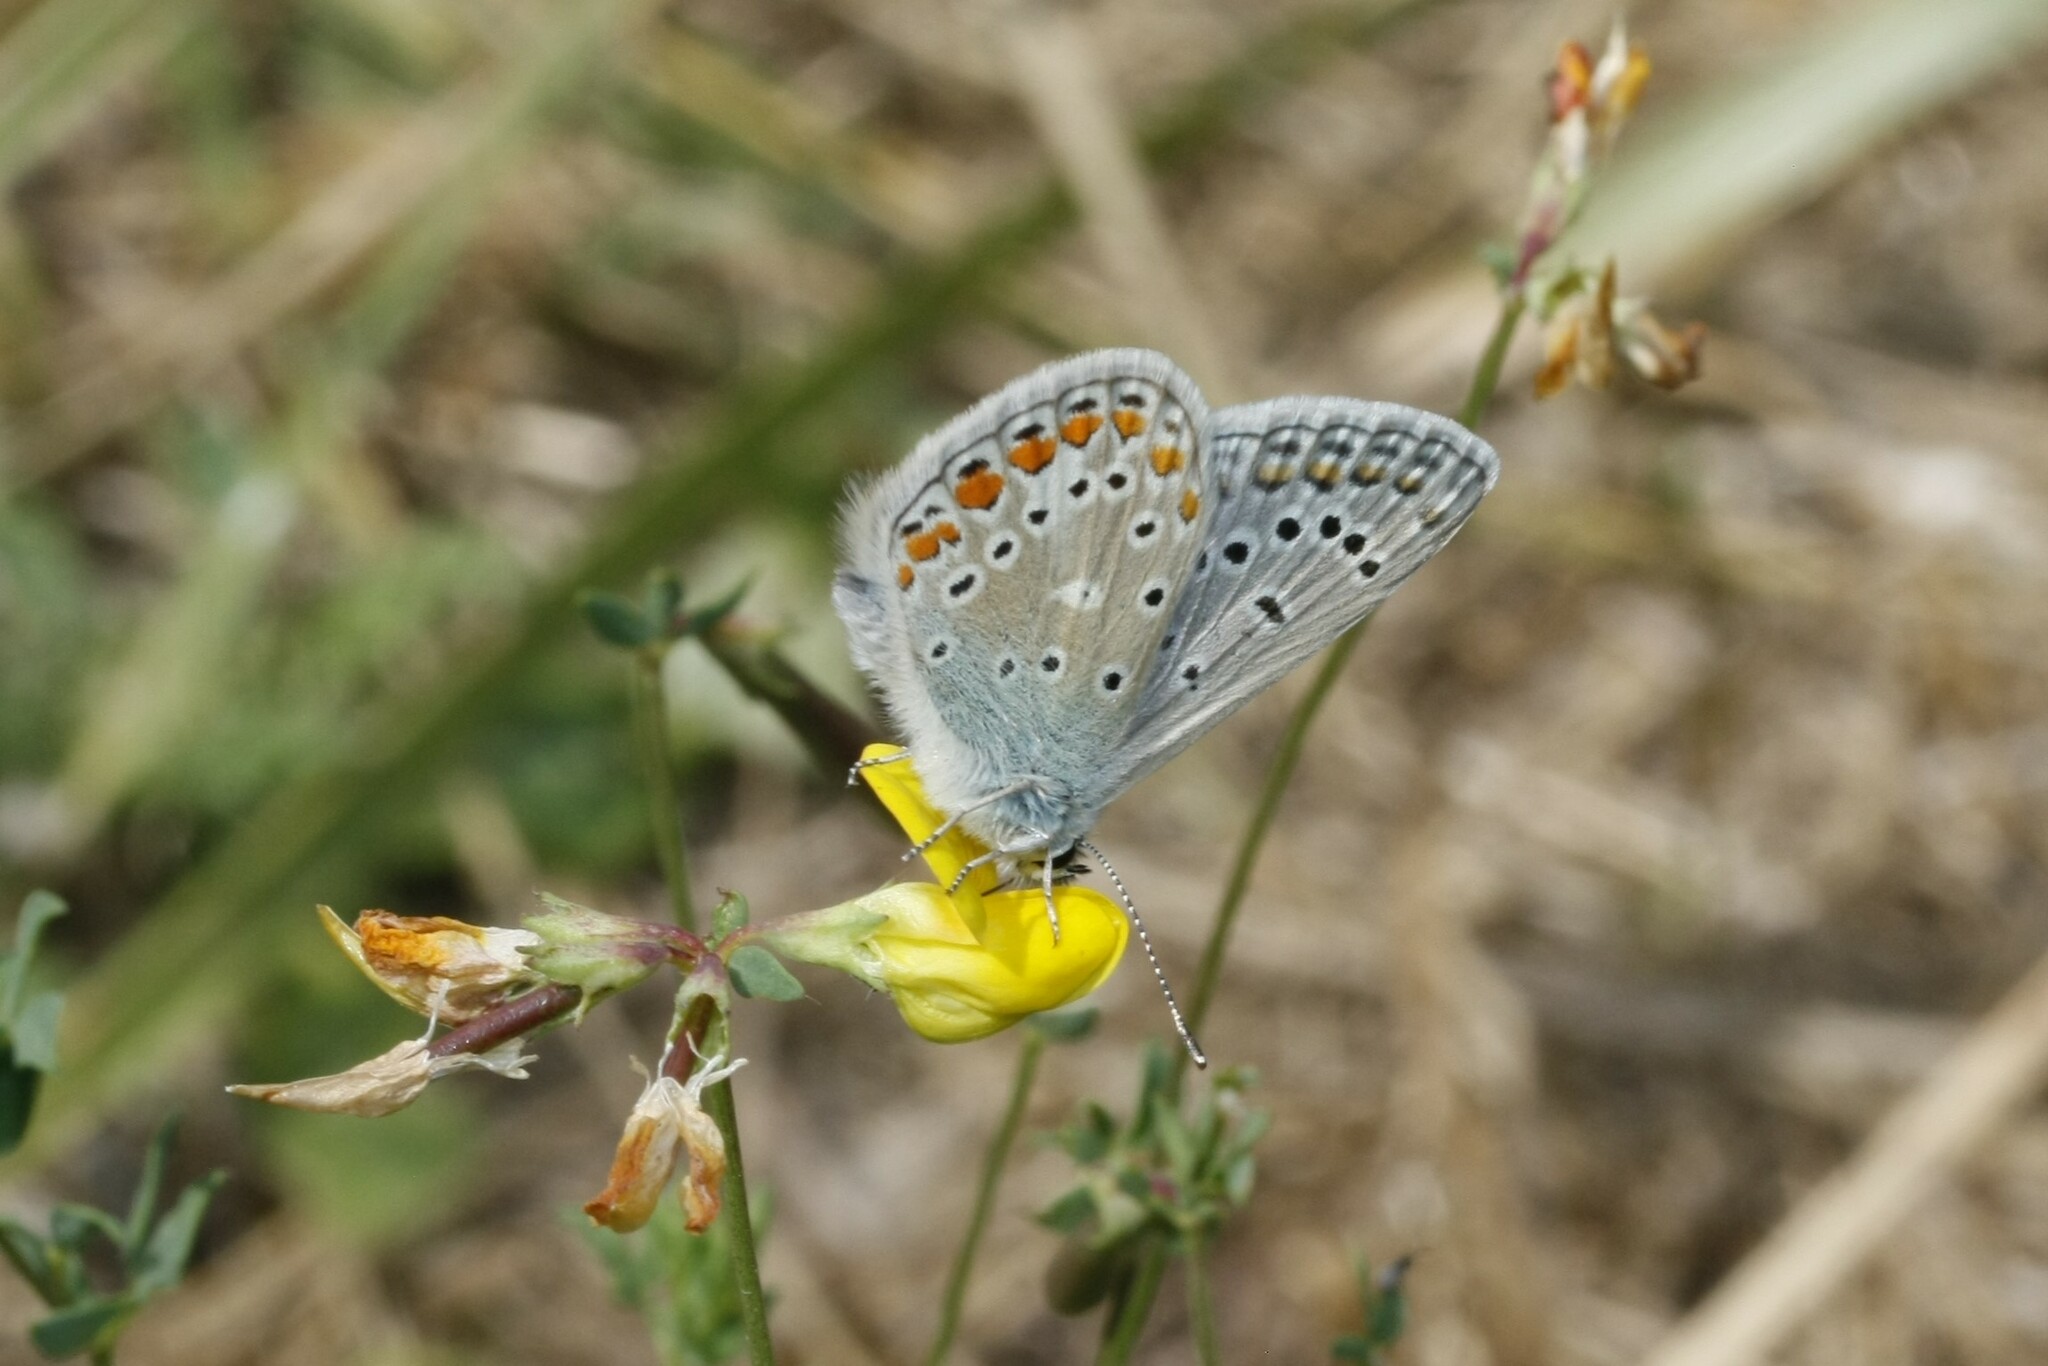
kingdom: Animalia
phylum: Arthropoda
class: Insecta
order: Lepidoptera
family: Lycaenidae
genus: Polyommatus
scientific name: Polyommatus icarus
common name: Common blue
